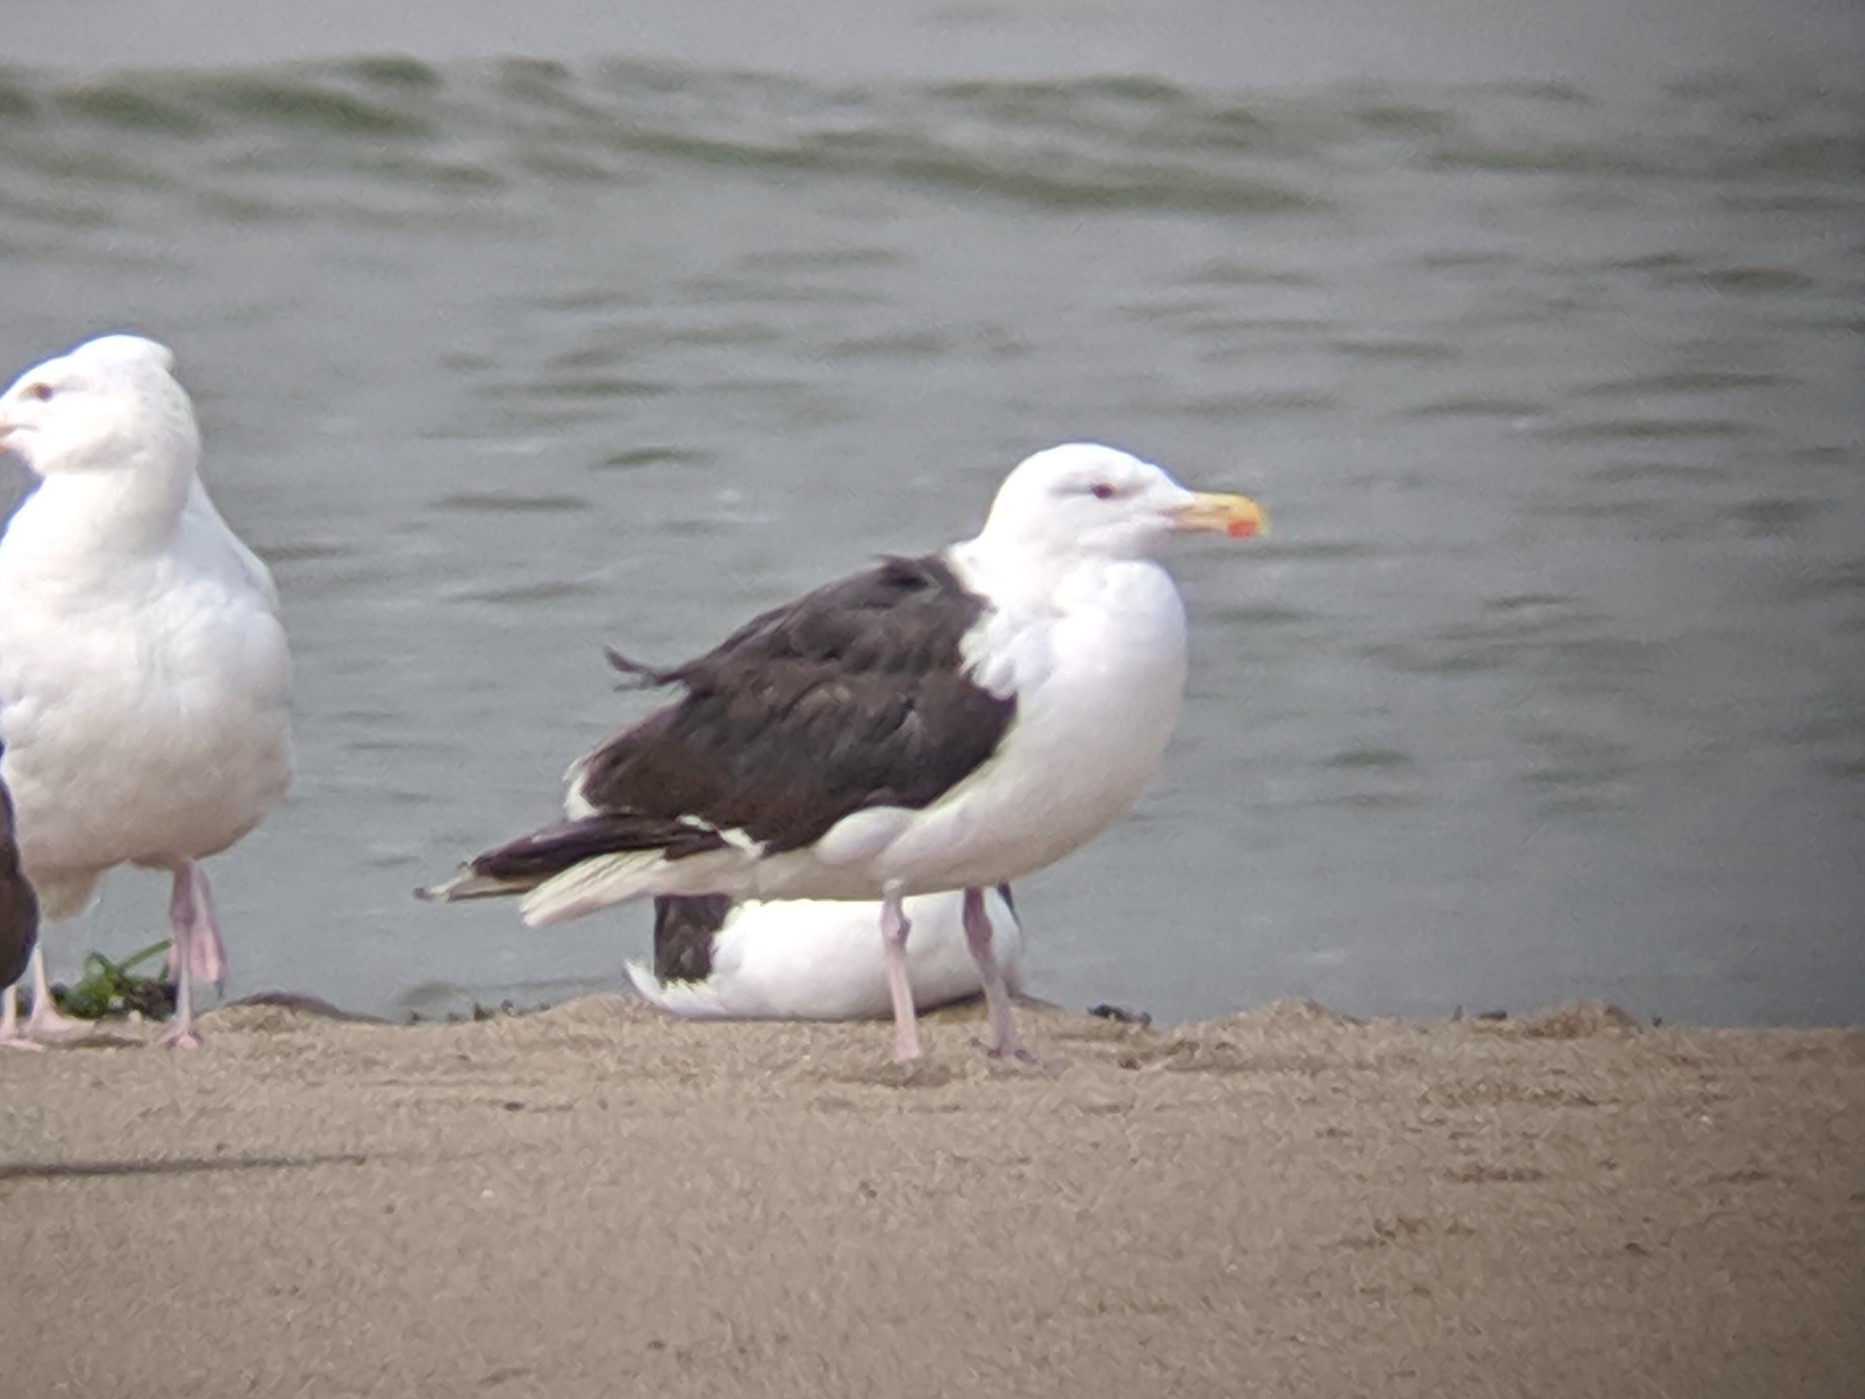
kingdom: Animalia
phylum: Chordata
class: Aves
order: Charadriiformes
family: Laridae
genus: Larus
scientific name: Larus marinus
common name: Great black-backed gull
